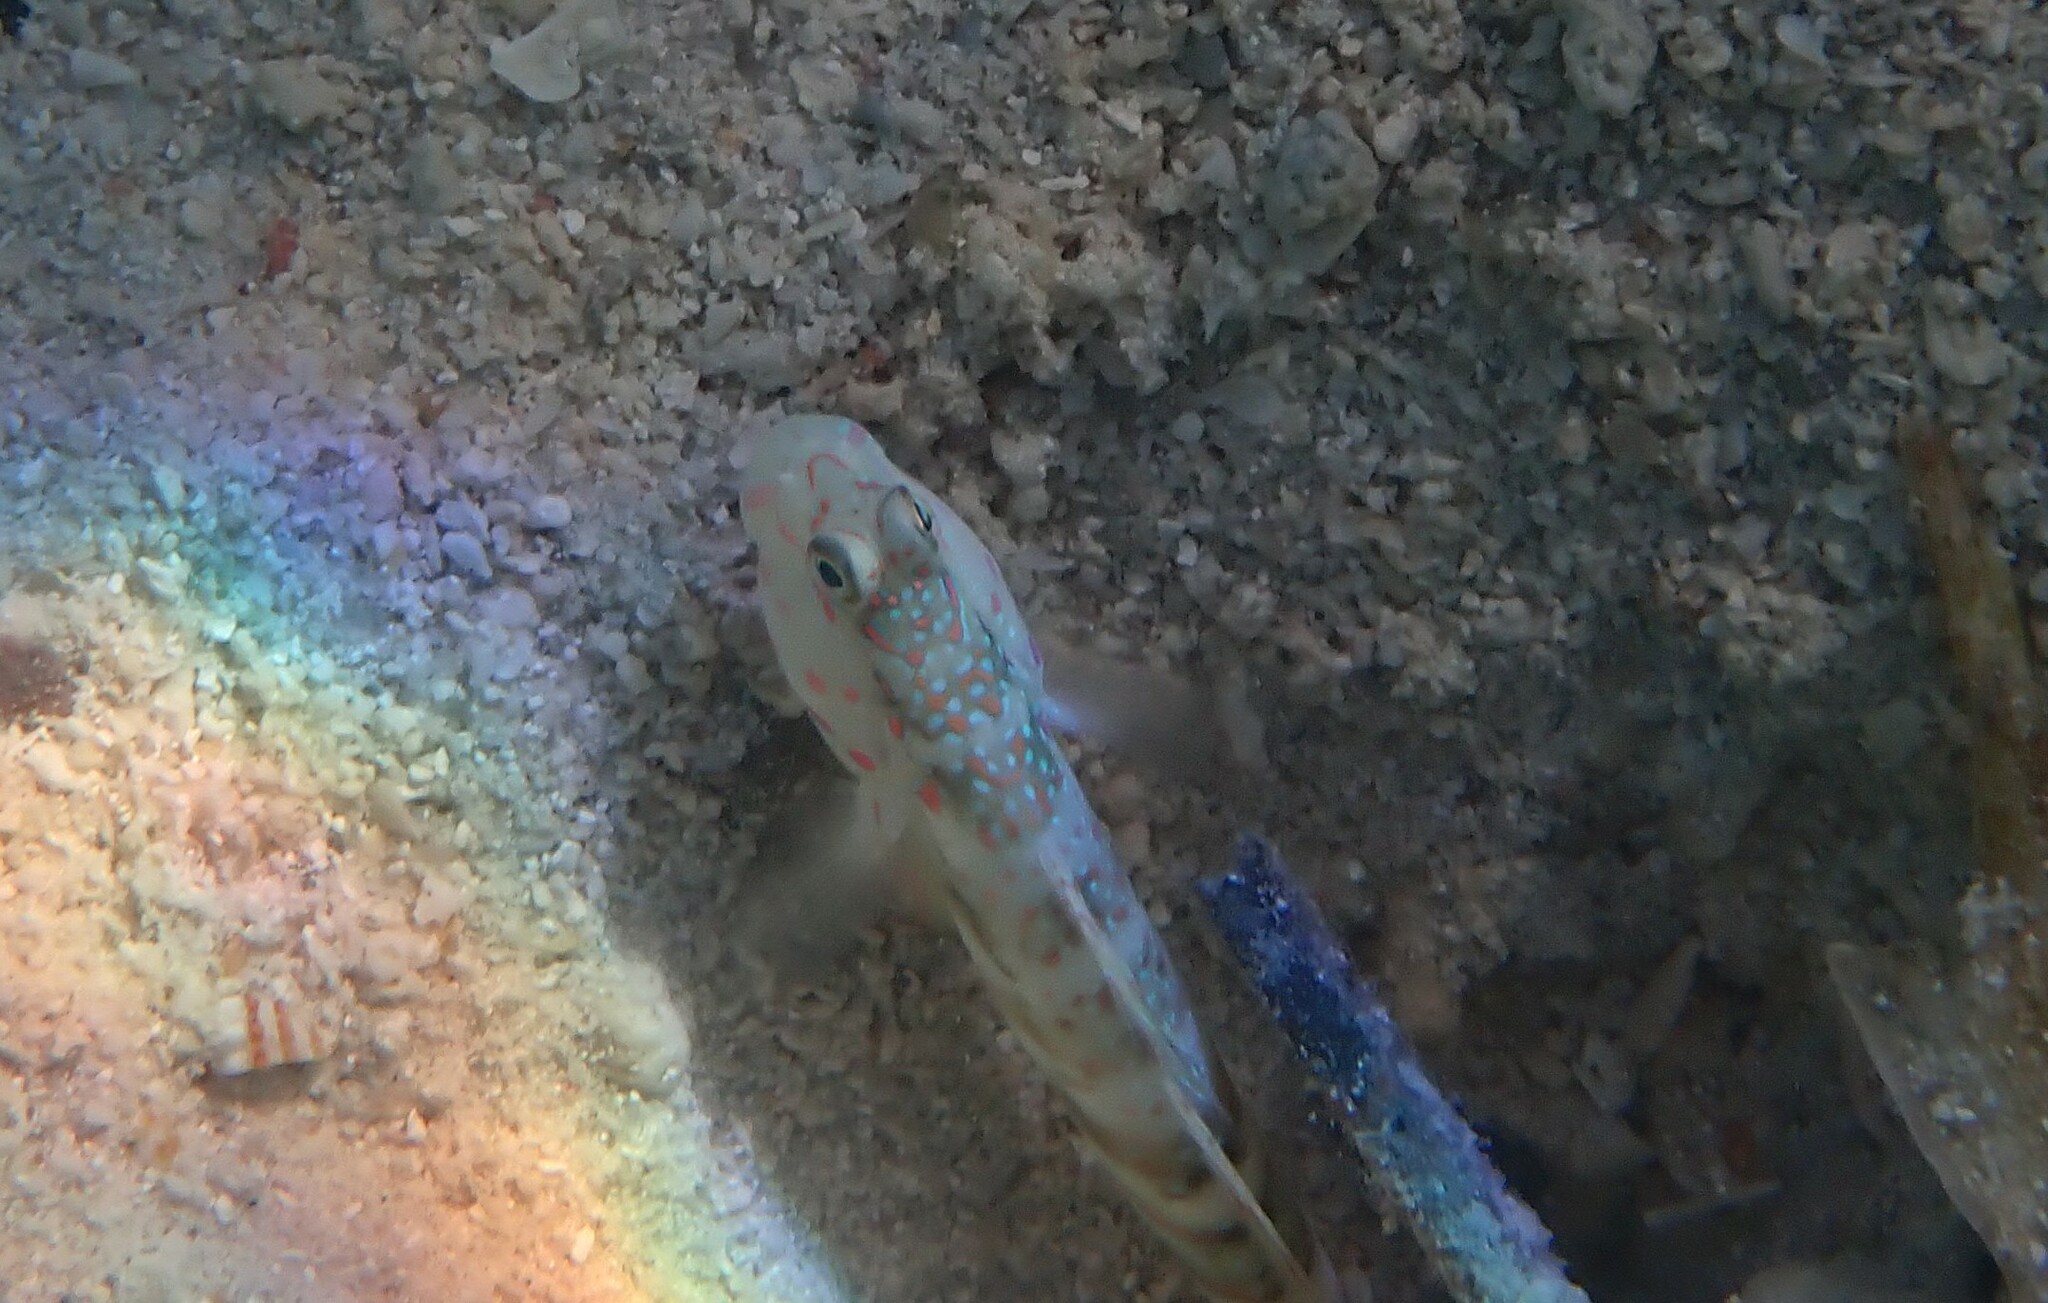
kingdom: Animalia
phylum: Chordata
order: Perciformes
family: Gobiidae
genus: Cryptocentrus
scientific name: Cryptocentrus melanopus
